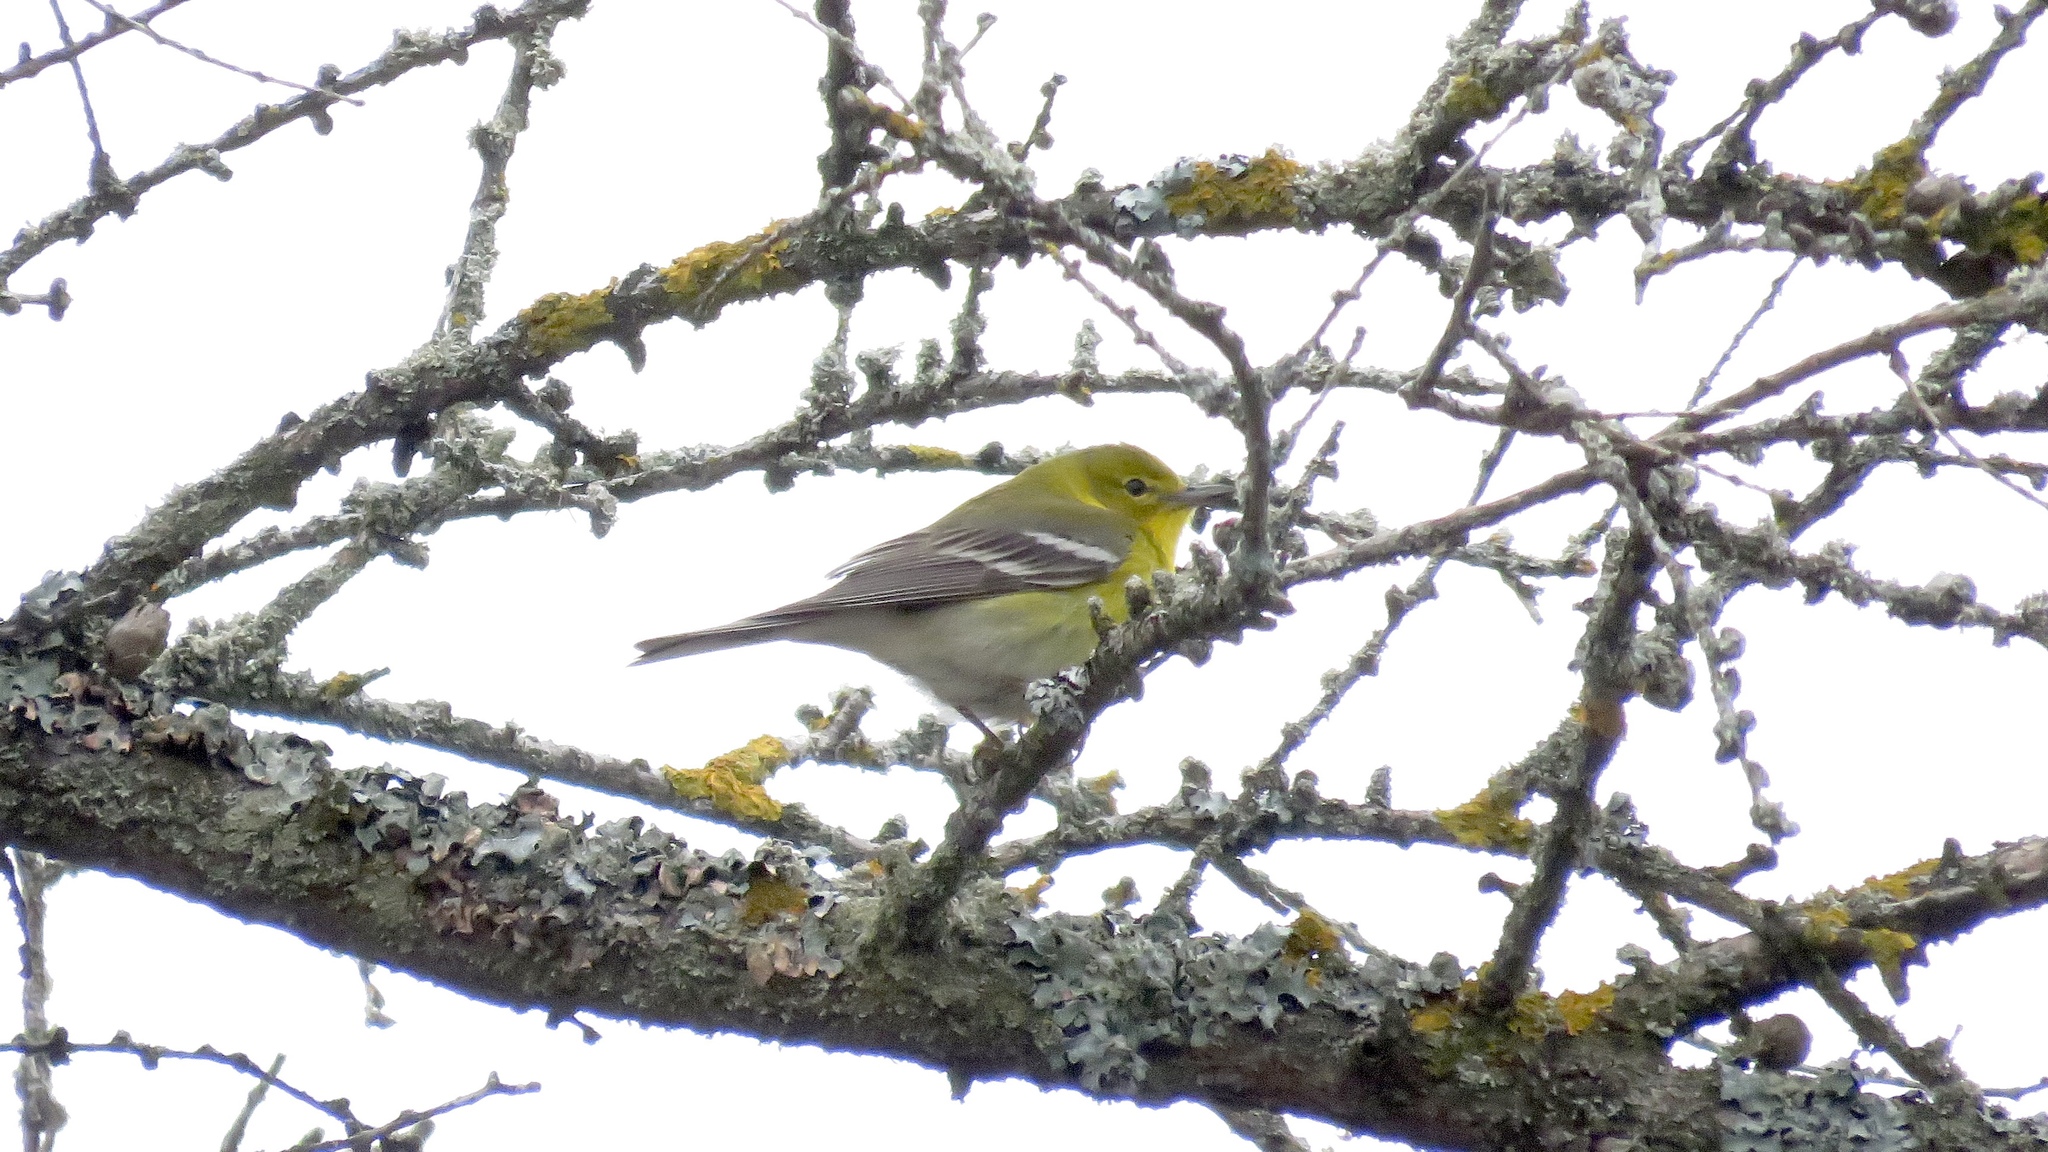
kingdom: Animalia
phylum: Chordata
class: Aves
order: Passeriformes
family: Parulidae
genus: Setophaga
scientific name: Setophaga pinus
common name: Pine warbler
